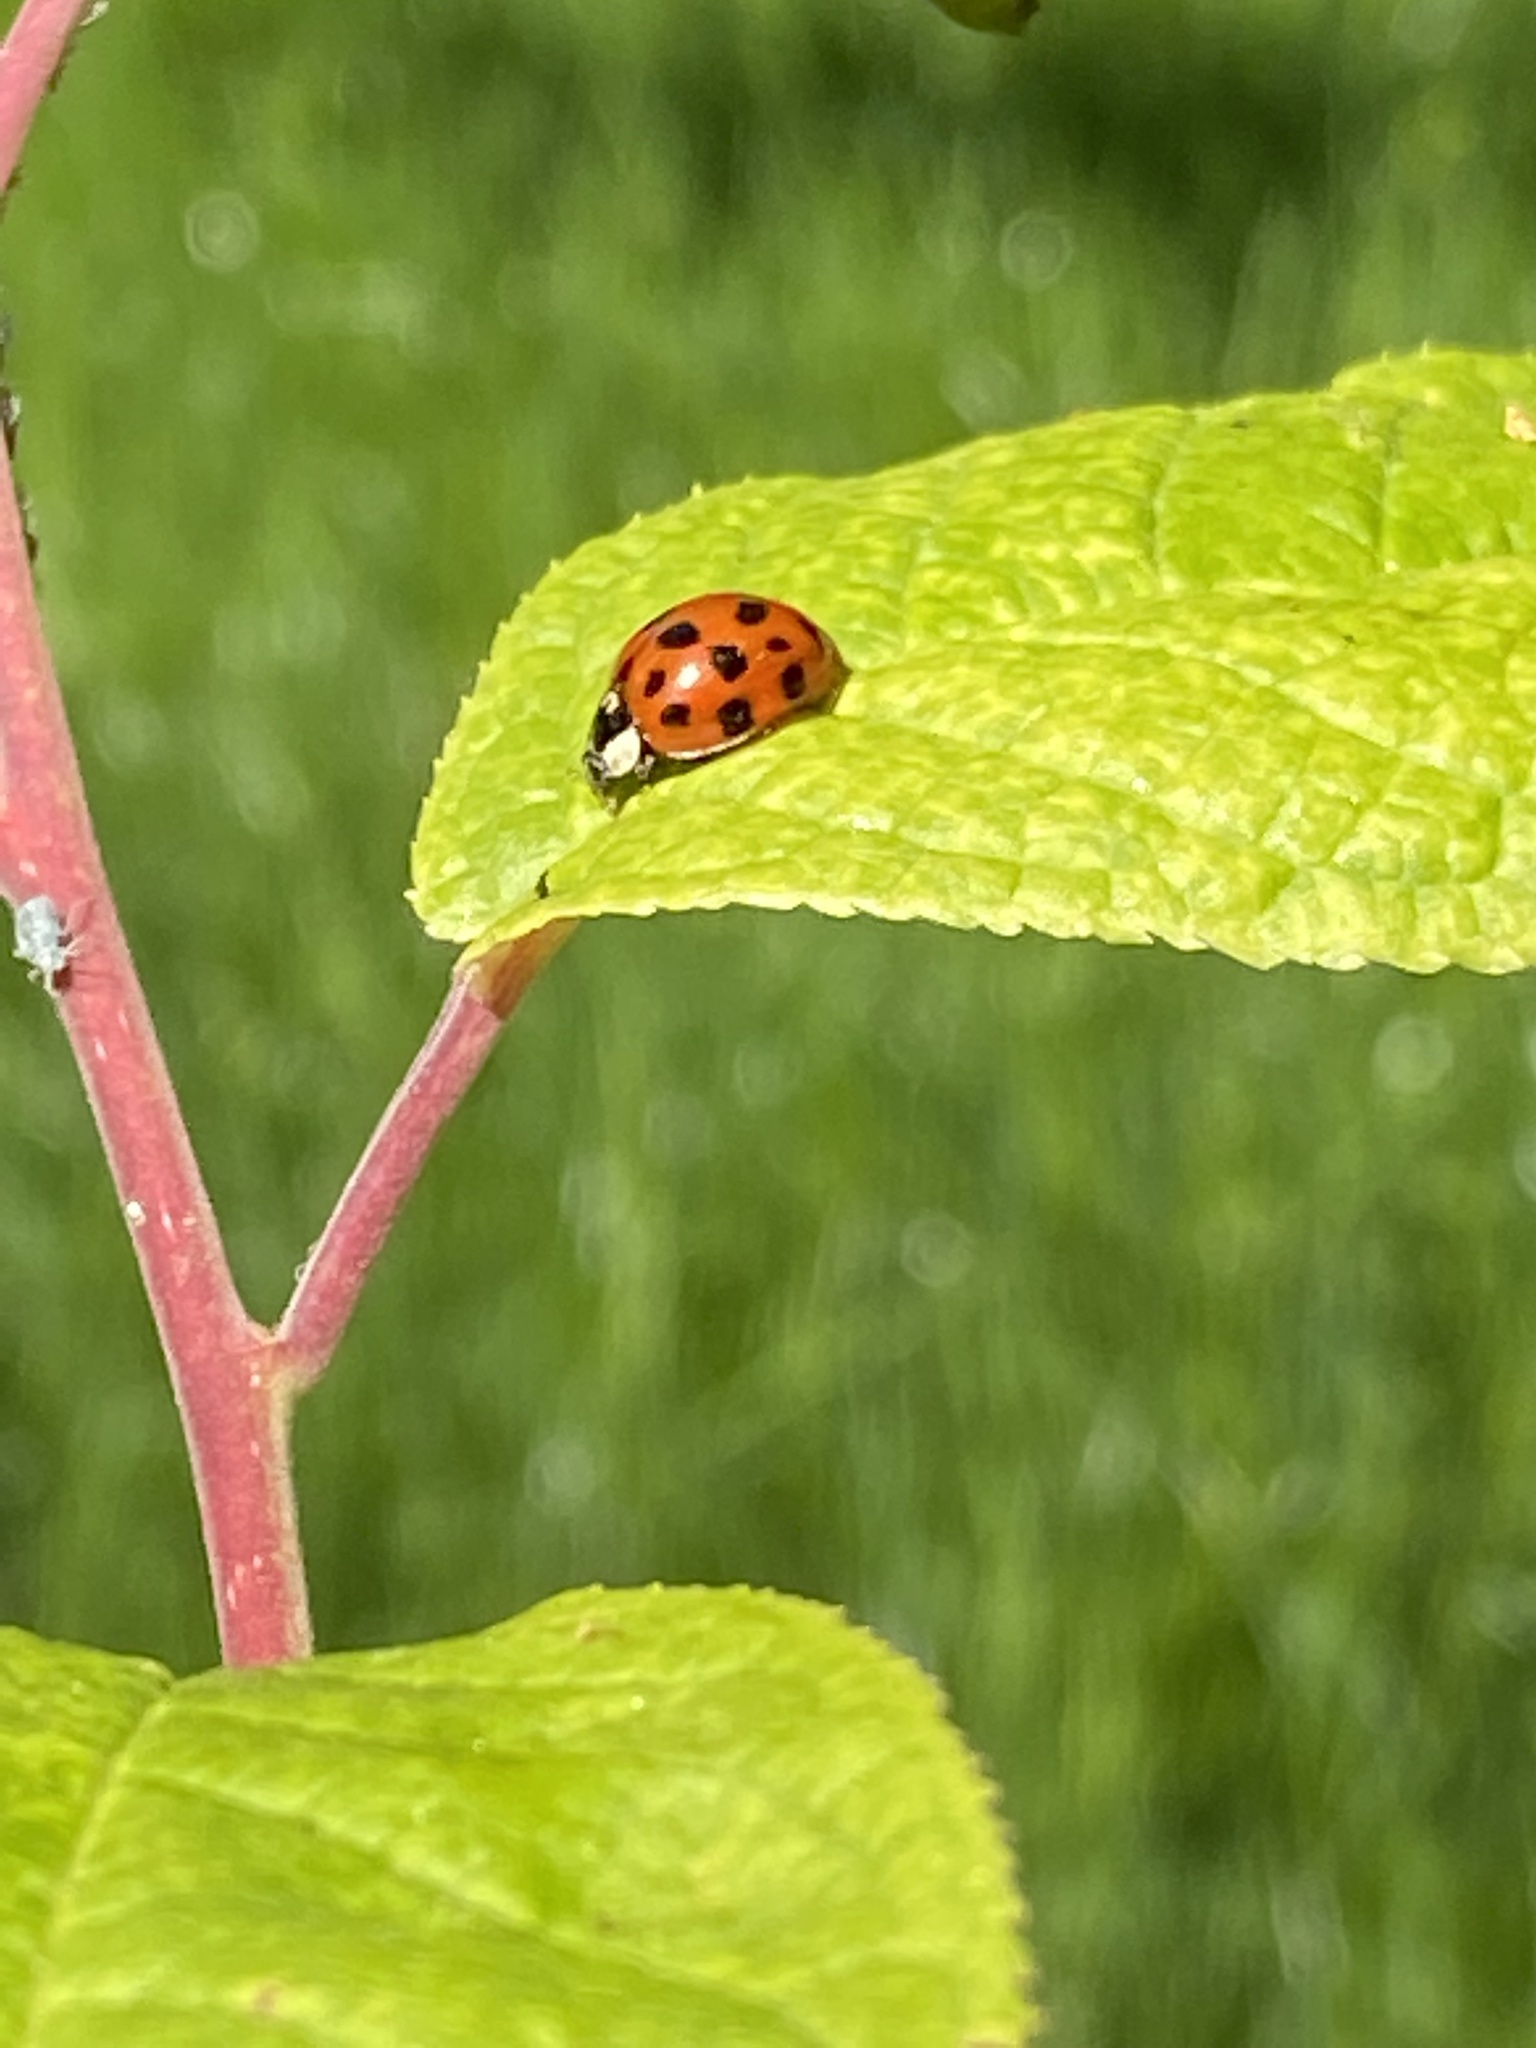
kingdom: Animalia
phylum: Arthropoda
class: Insecta
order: Coleoptera
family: Coccinellidae
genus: Harmonia
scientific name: Harmonia axyridis
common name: Harlequin ladybird
